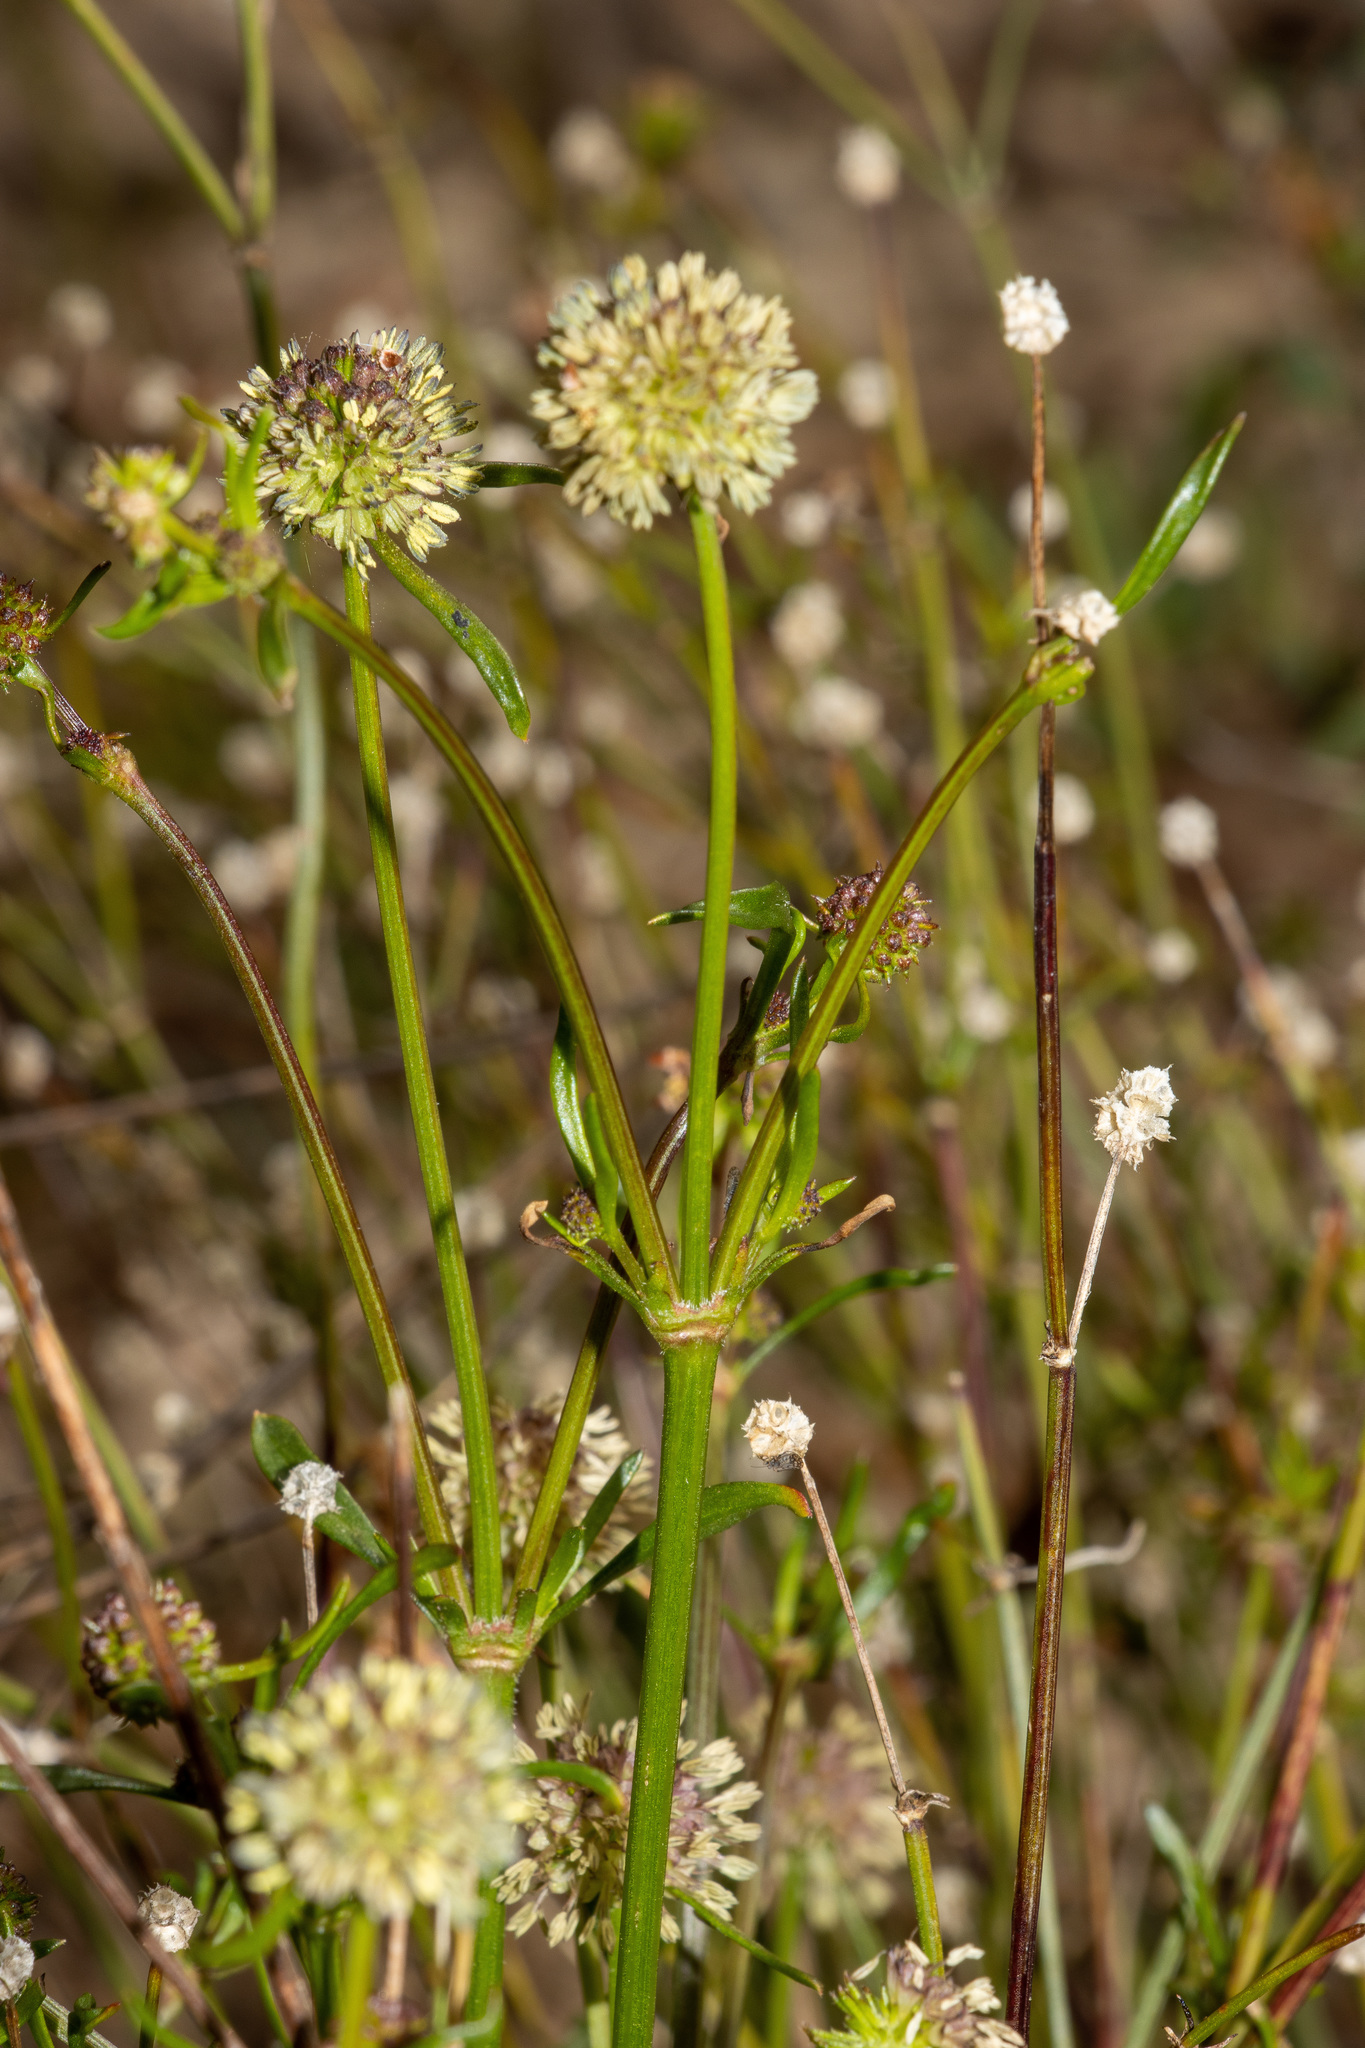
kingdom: Plantae
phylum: Tracheophyta
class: Magnoliopsida
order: Gentianales
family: Rubiaceae
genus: Opercularia
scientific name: Opercularia scabrida
